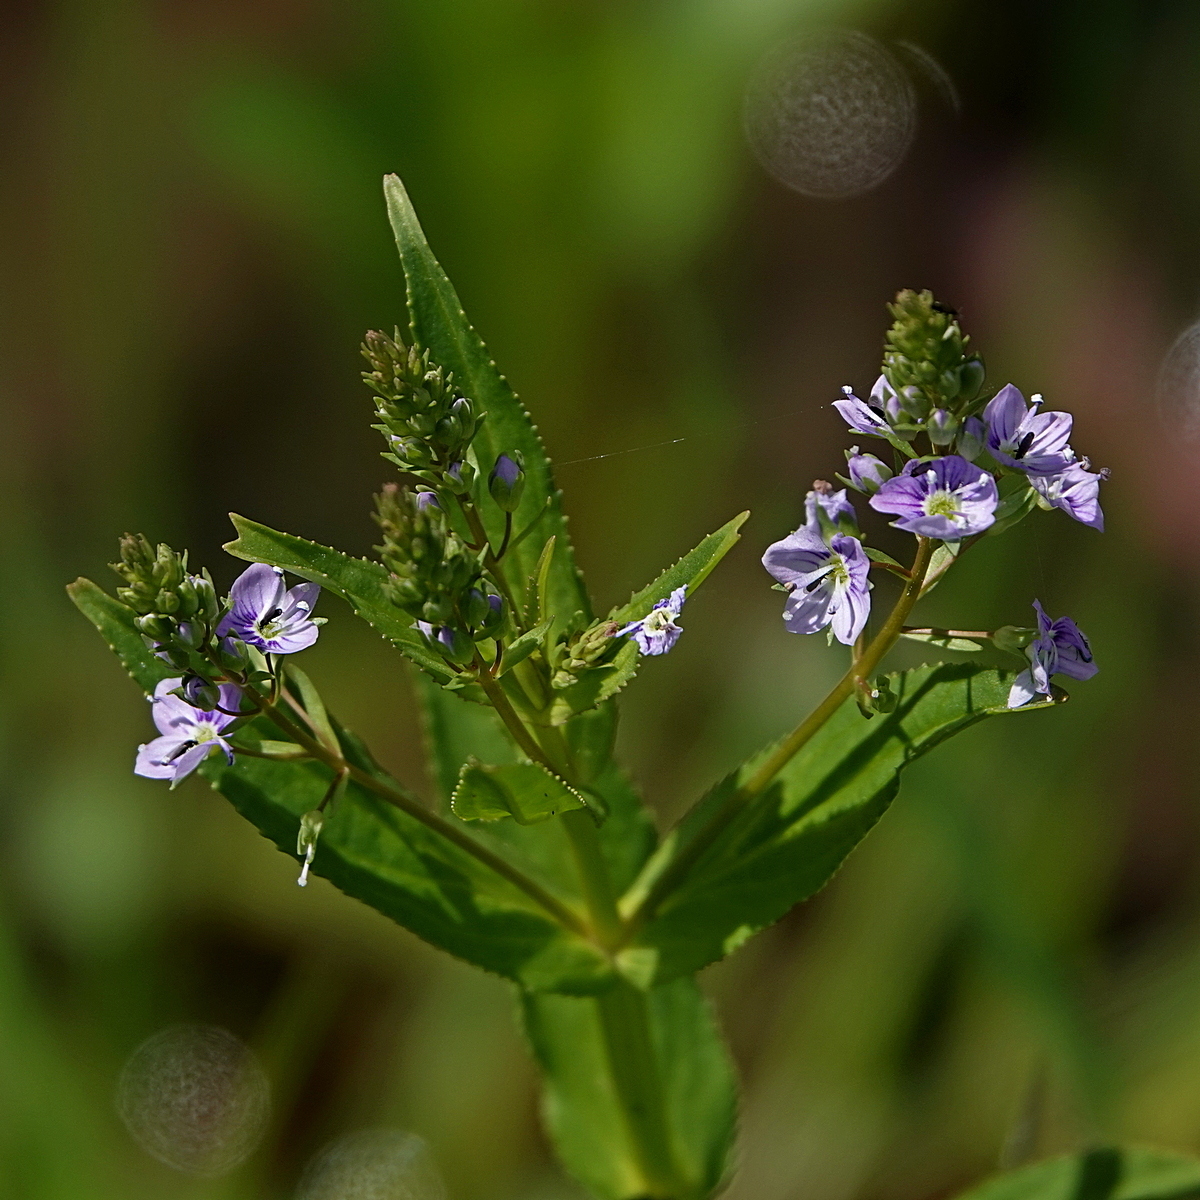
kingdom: Plantae
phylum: Tracheophyta
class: Magnoliopsida
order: Lamiales
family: Plantaginaceae
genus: Veronica
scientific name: Veronica anagallis-aquatica
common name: Water speedwell
